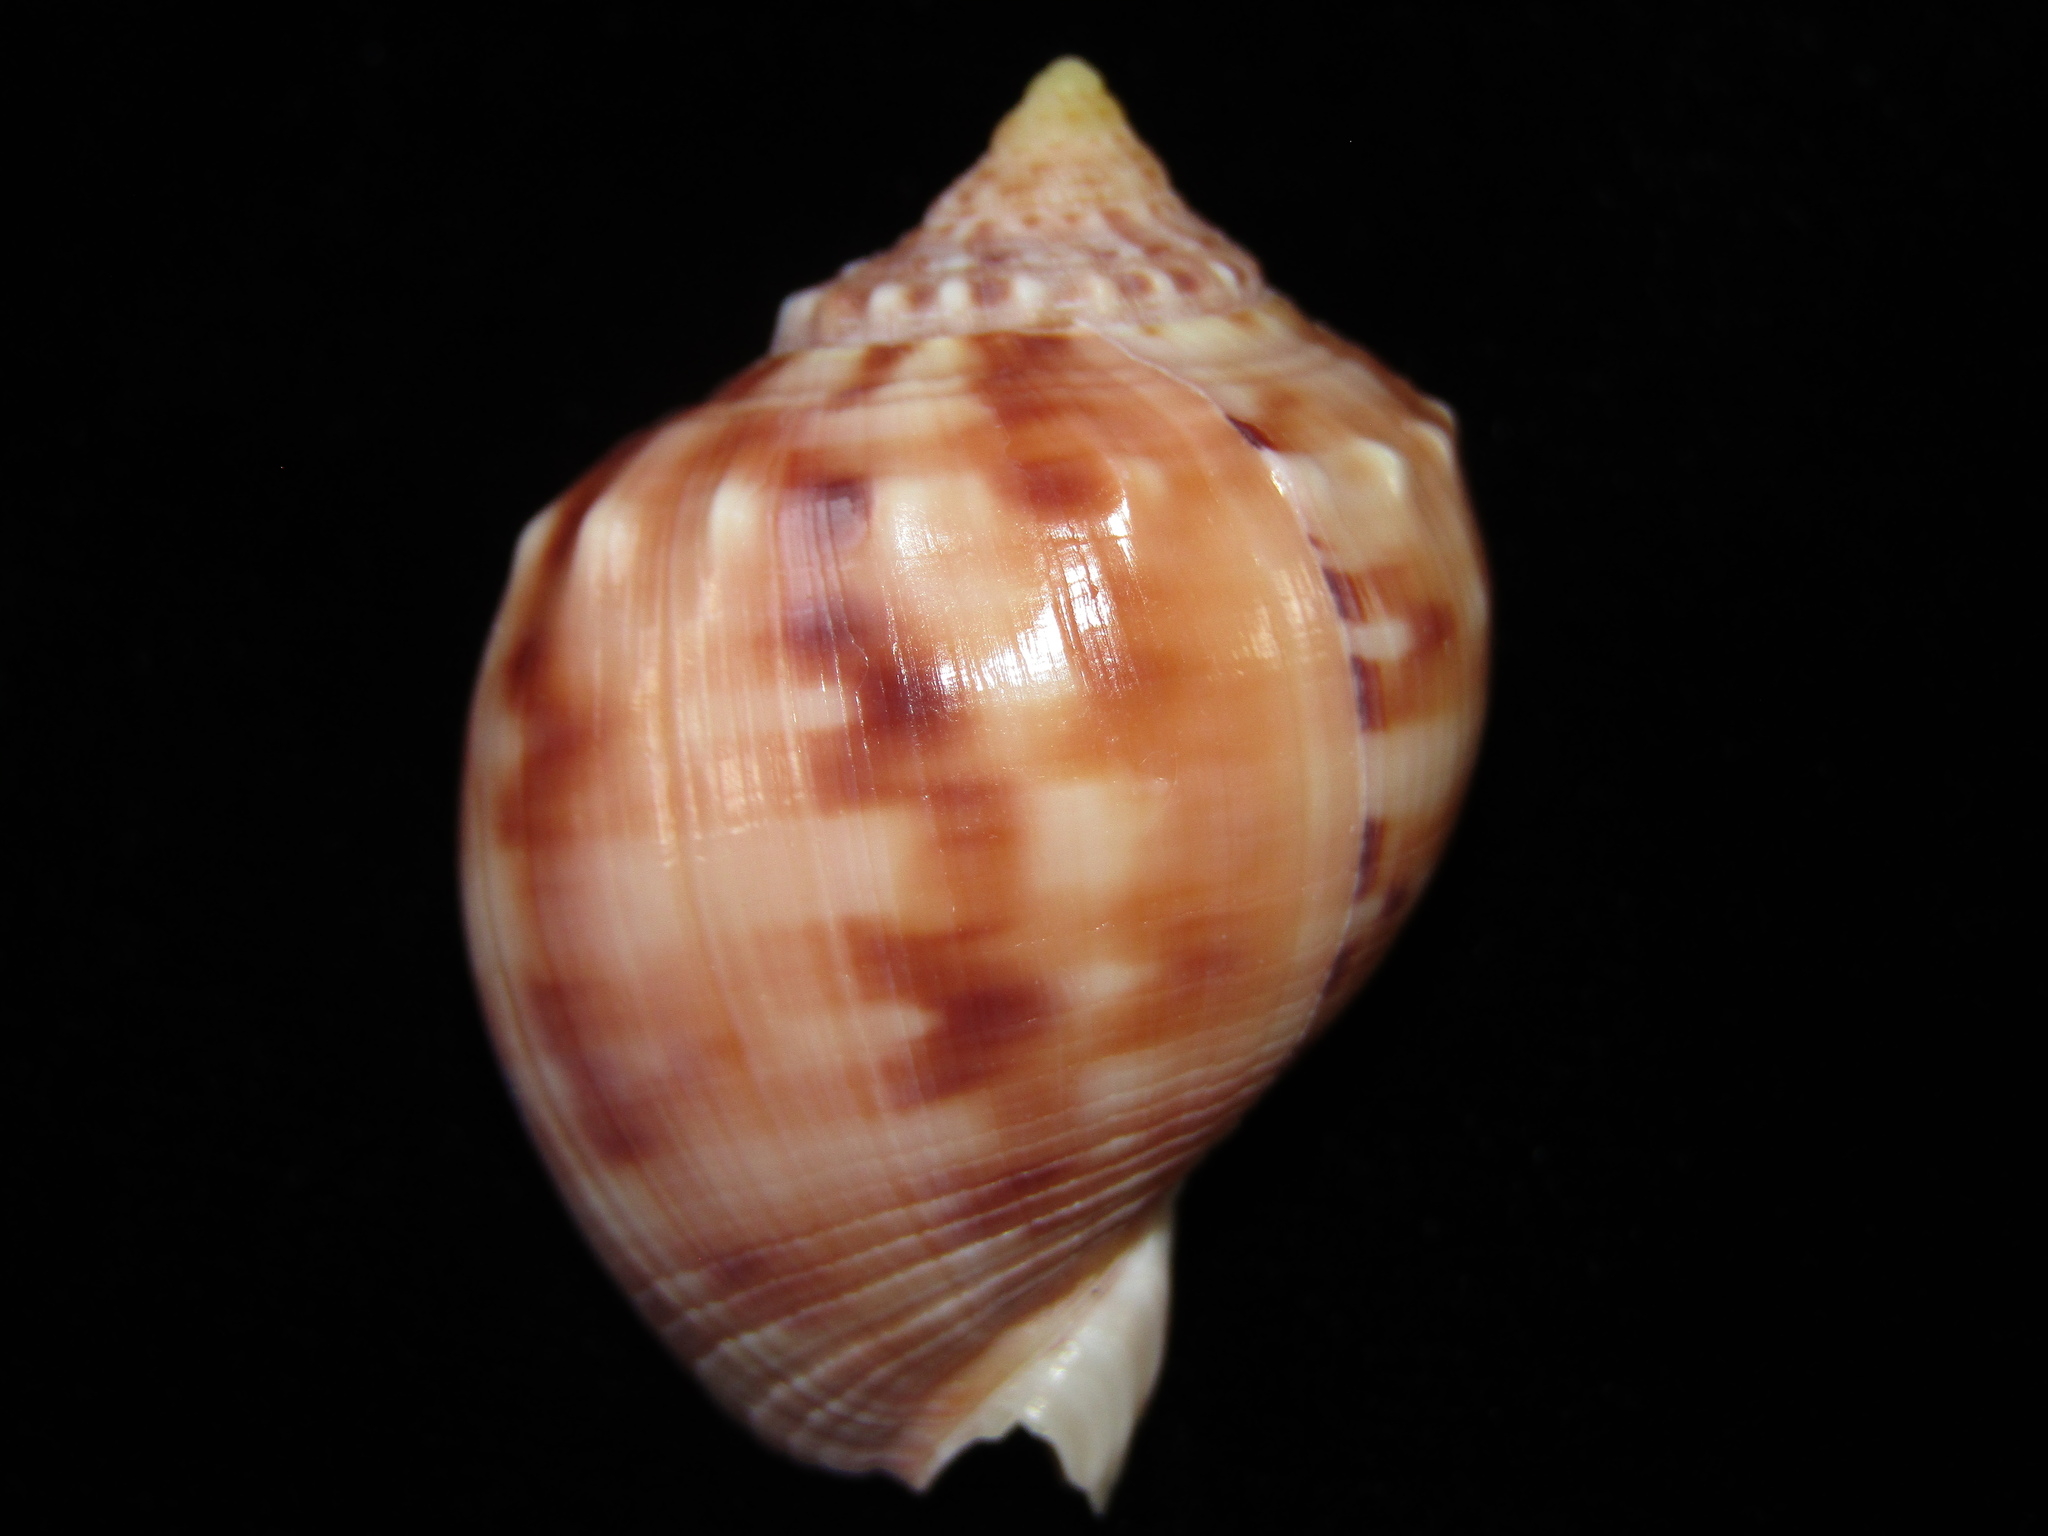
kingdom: Animalia
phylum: Mollusca
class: Gastropoda
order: Littorinimorpha
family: Cassidae
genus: Semicassis
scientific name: Semicassis pyrum
